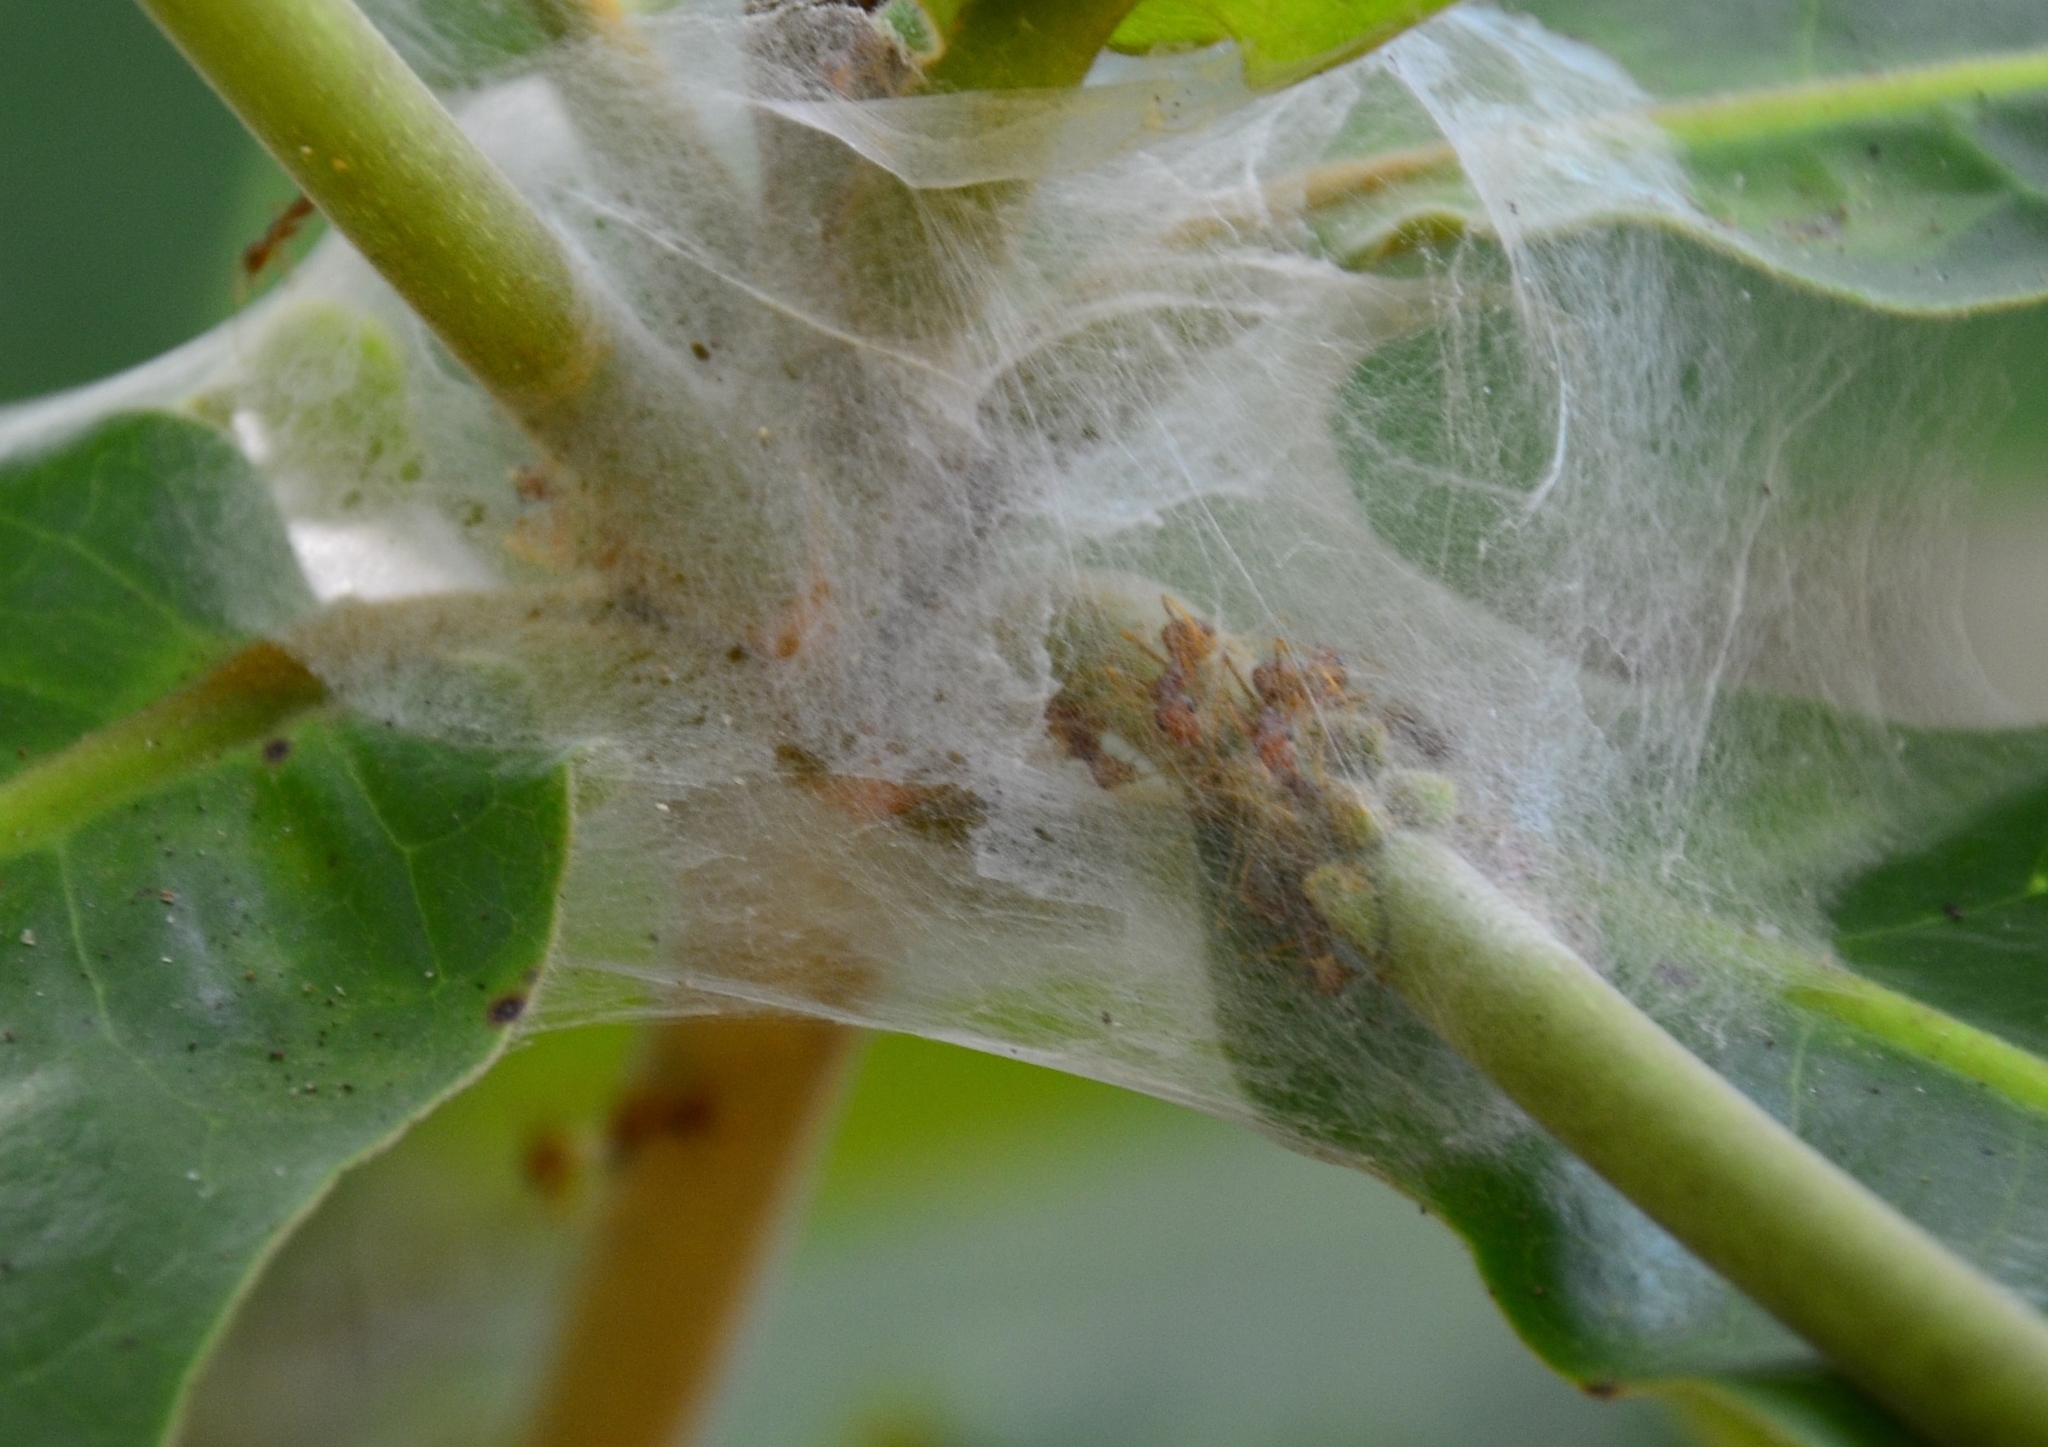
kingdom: Animalia
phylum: Arthropoda
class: Insecta
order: Hymenoptera
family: Formicidae
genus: Oecophylla
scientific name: Oecophylla smaragdina
